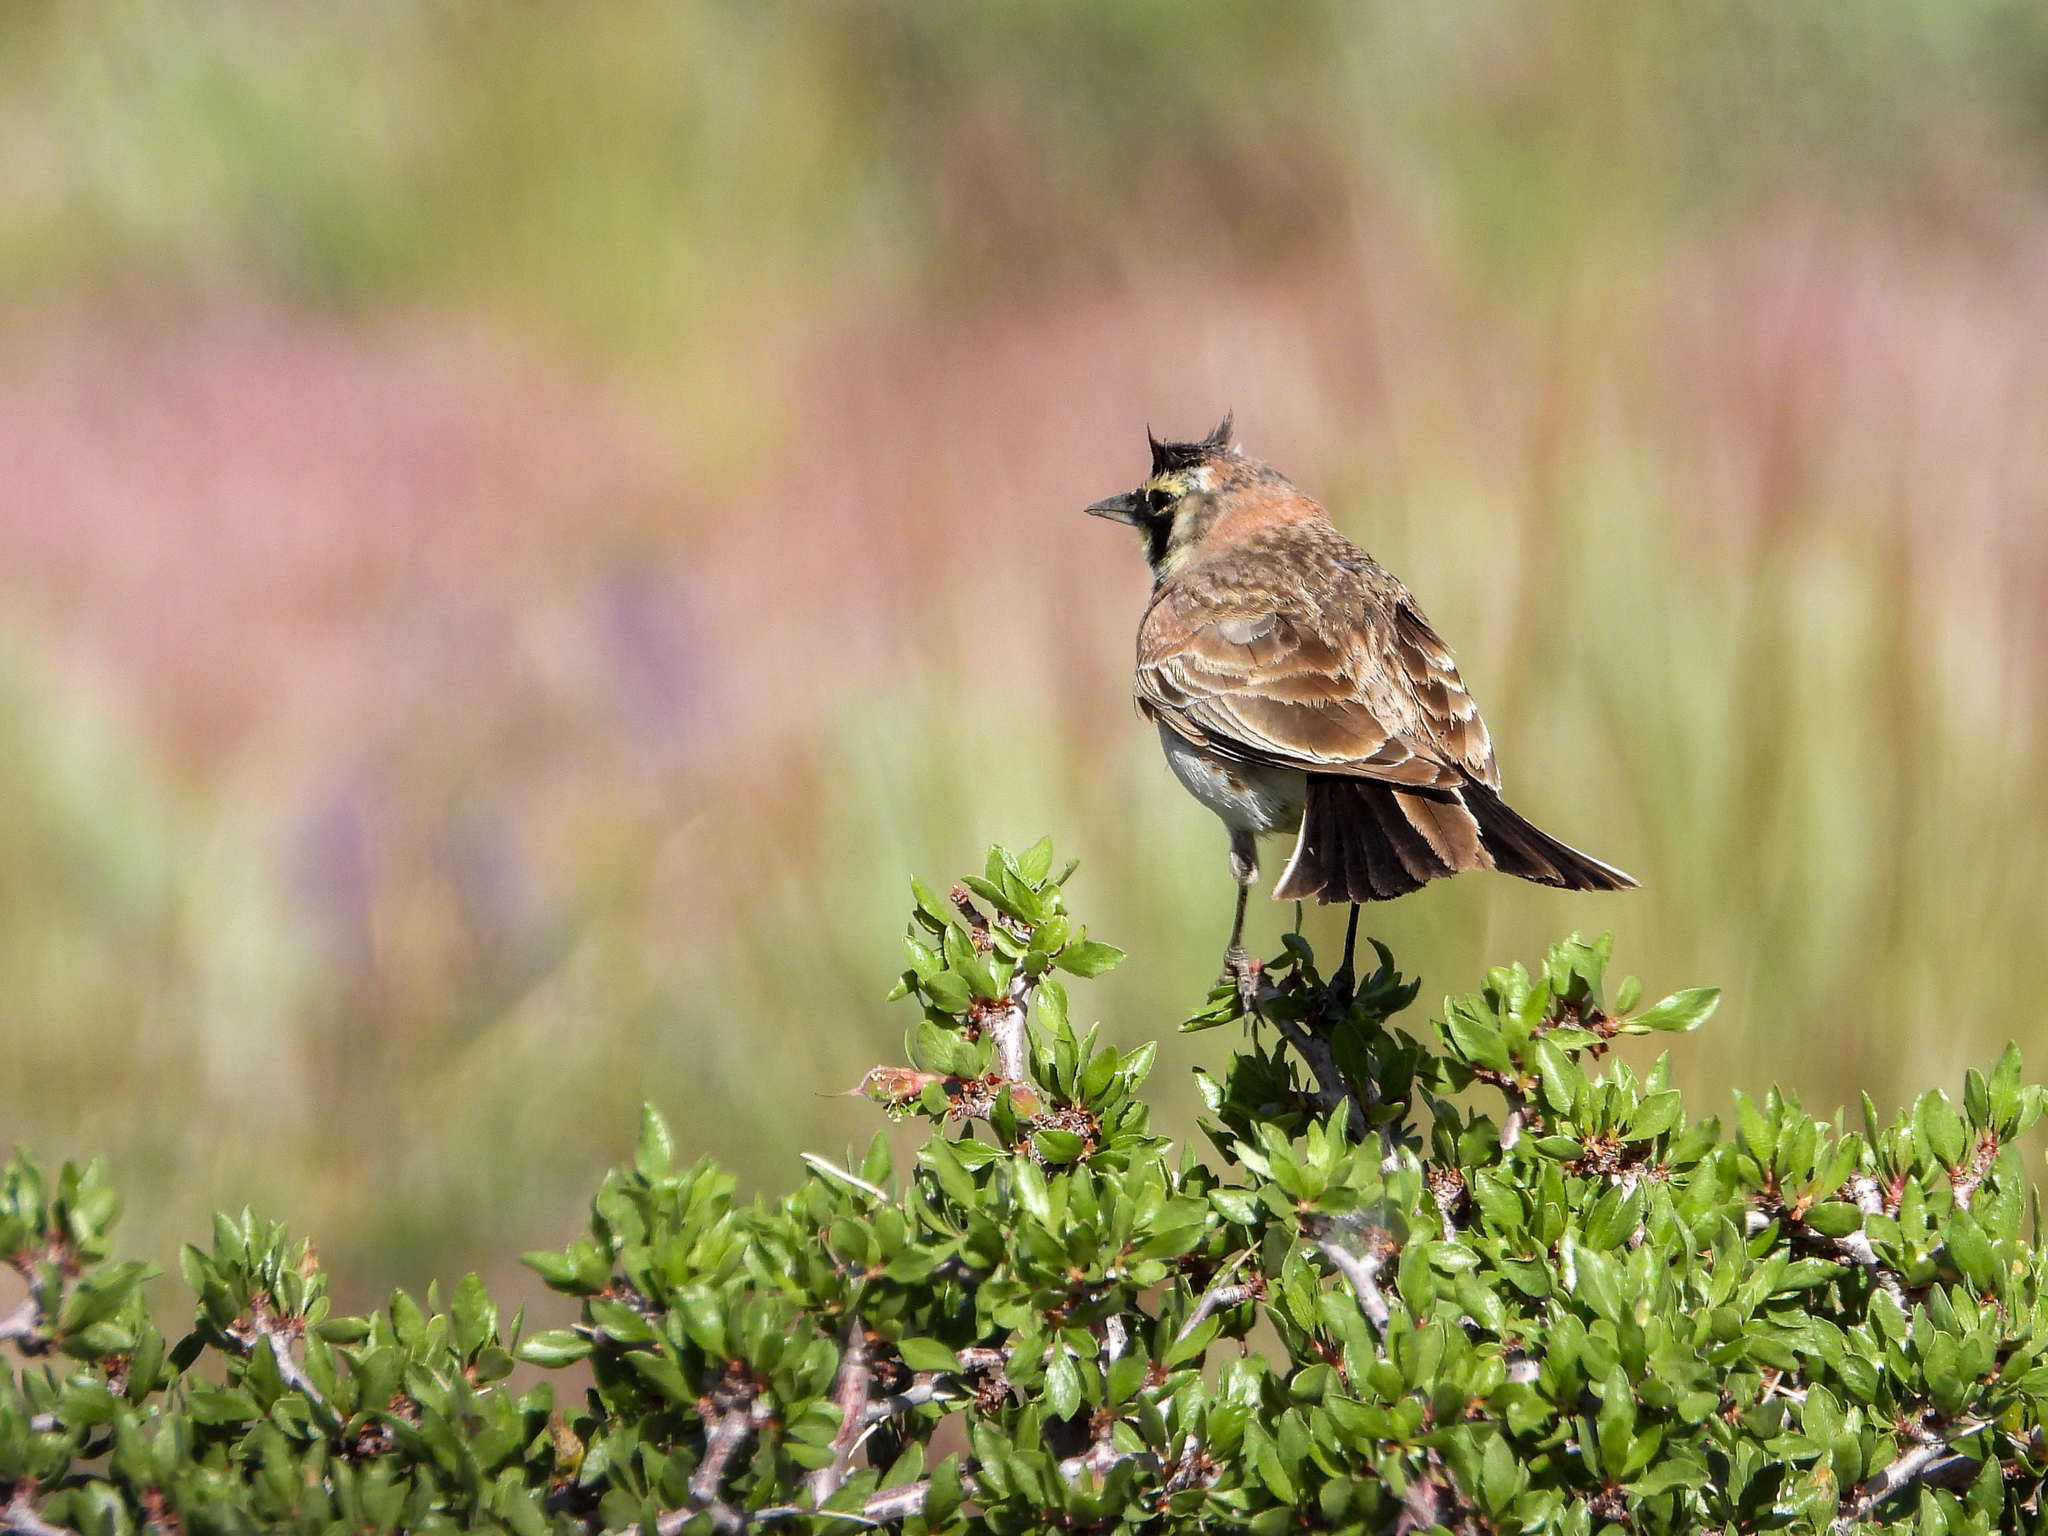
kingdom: Animalia
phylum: Chordata
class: Aves
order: Passeriformes
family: Alaudidae
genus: Eremophila
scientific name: Eremophila alpestris
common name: Horned lark
